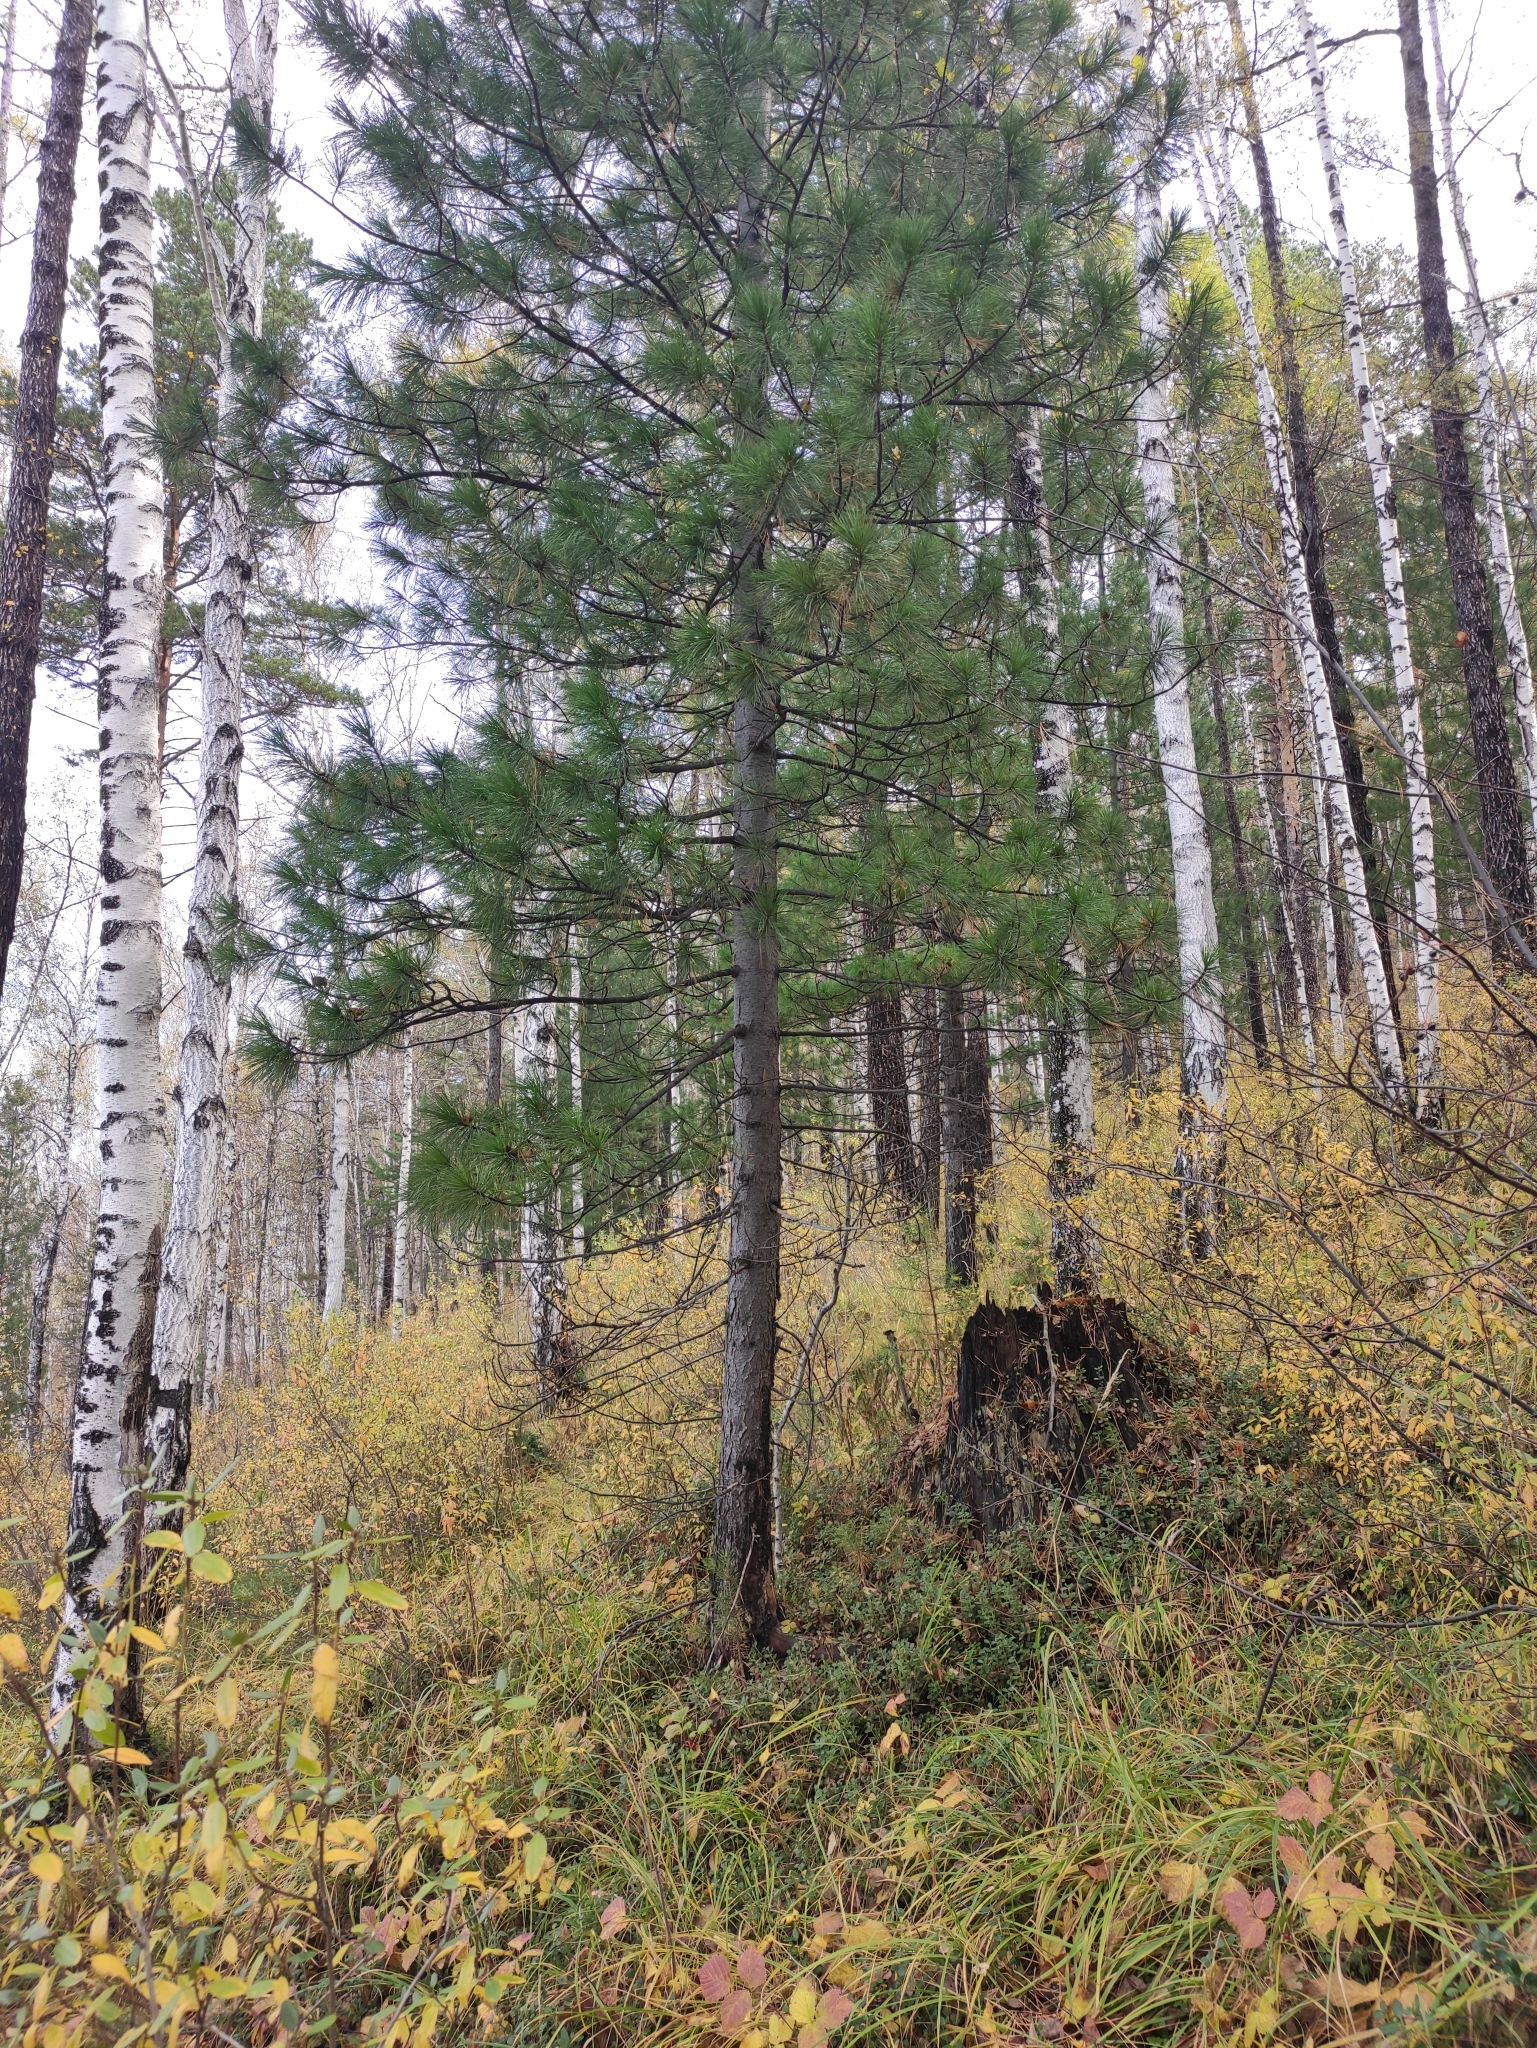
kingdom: Plantae
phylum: Tracheophyta
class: Pinopsida
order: Pinales
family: Pinaceae
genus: Pinus
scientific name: Pinus sibirica
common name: Siberian pine
